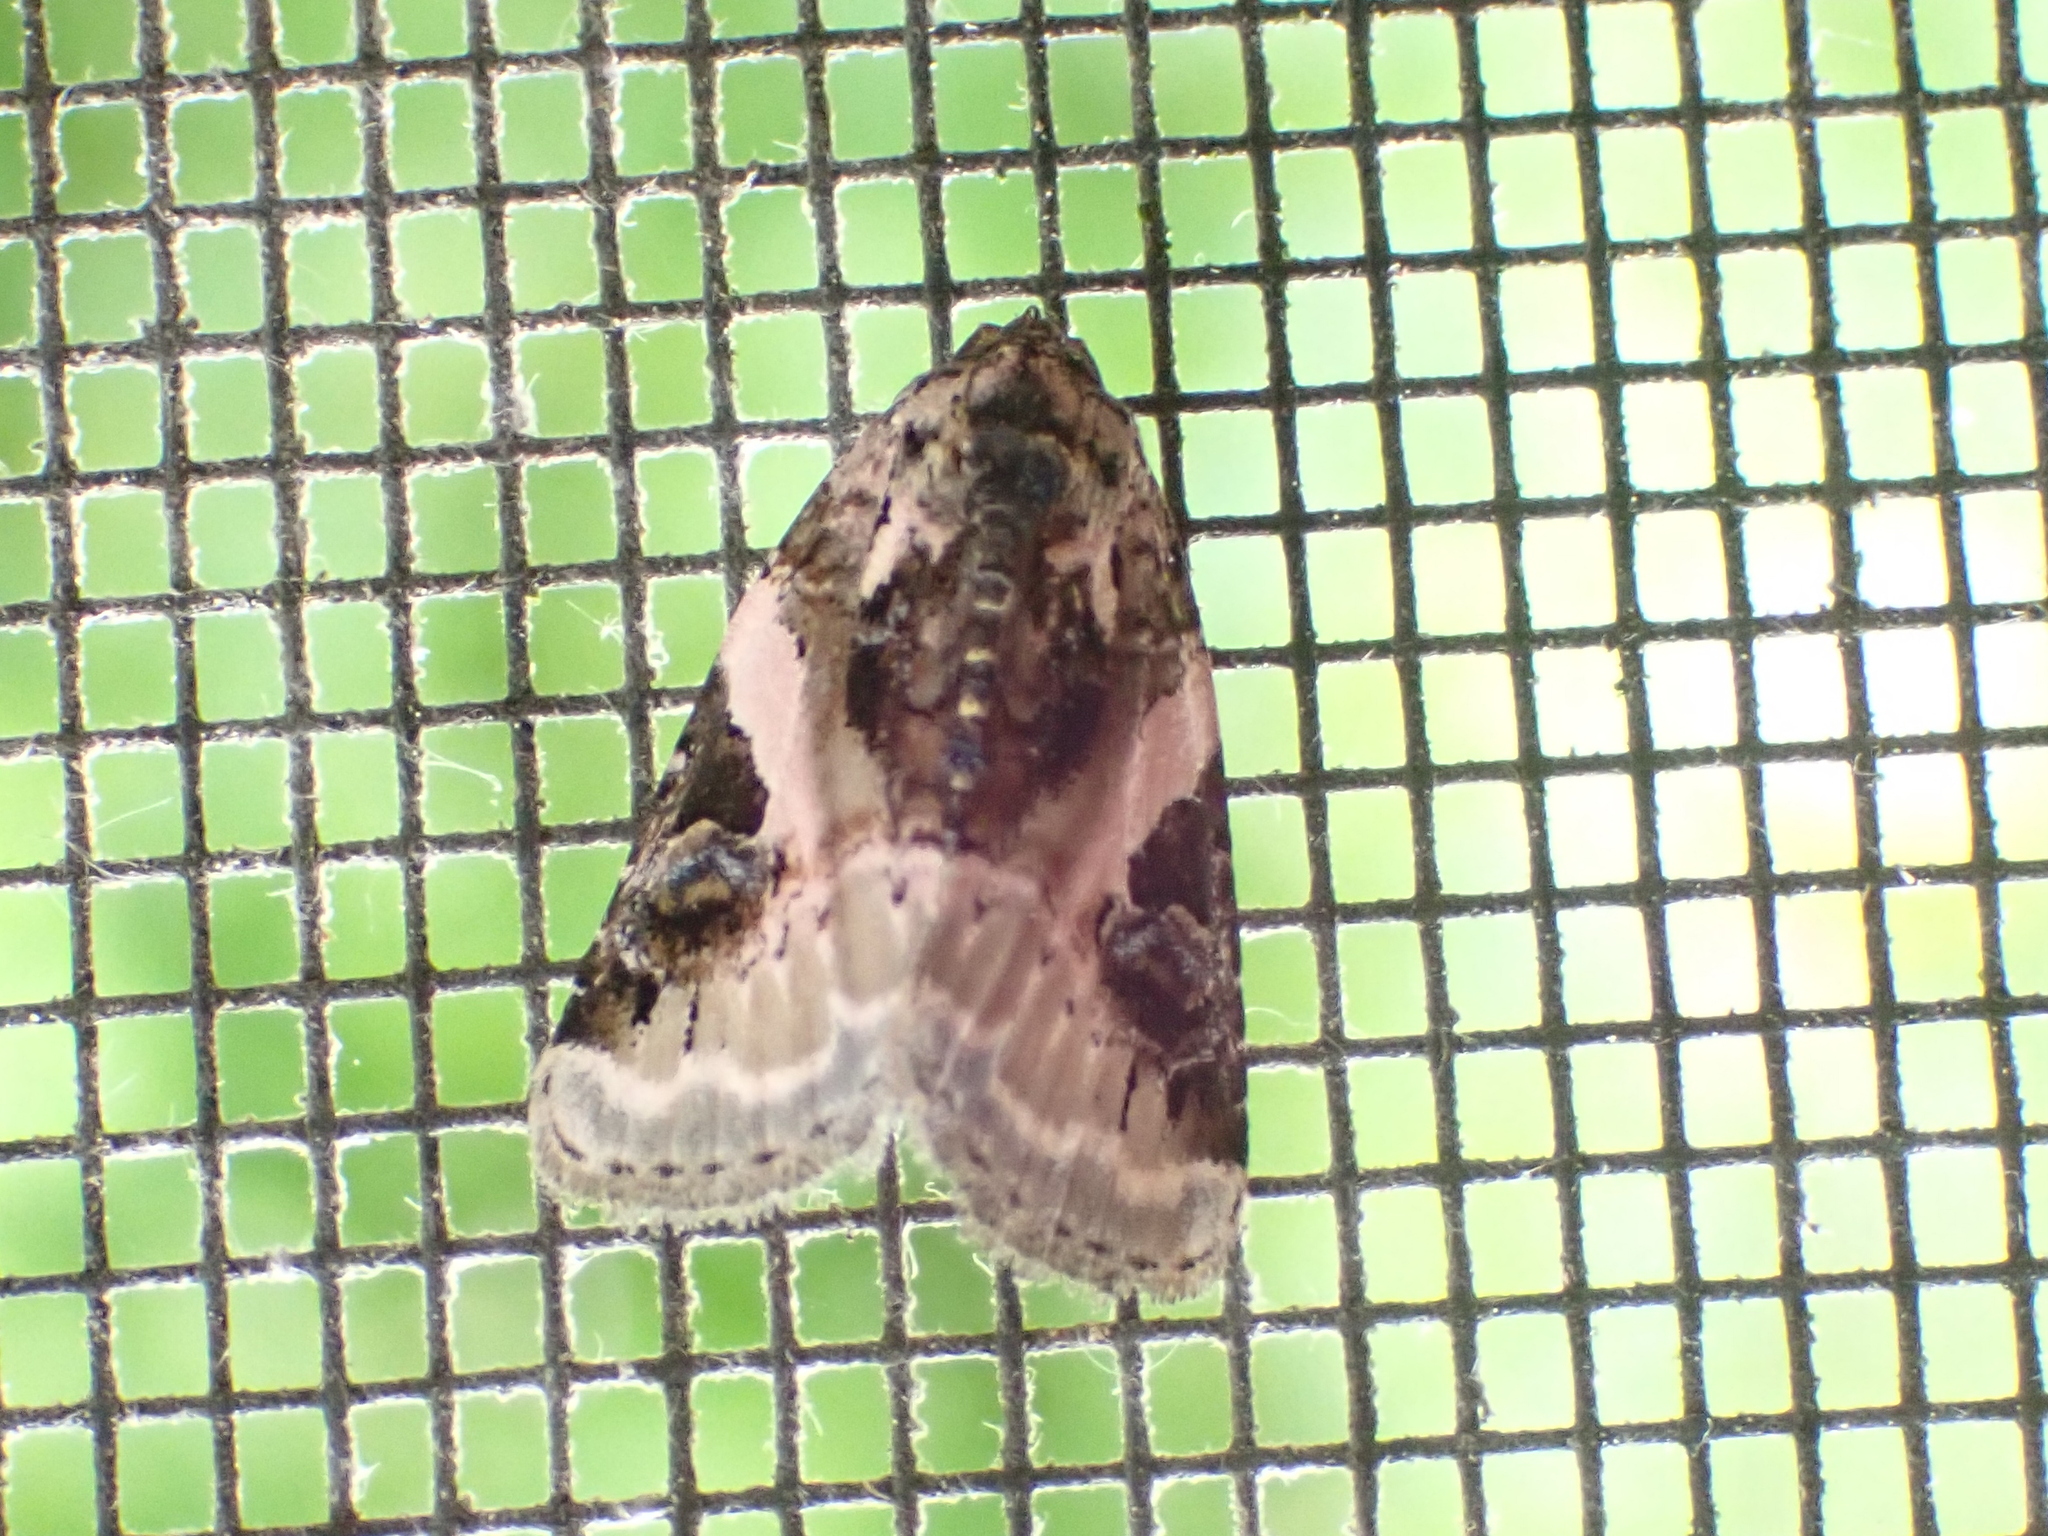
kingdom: Animalia
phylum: Arthropoda
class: Insecta
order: Lepidoptera
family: Noctuidae
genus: Pseudeustrotia
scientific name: Pseudeustrotia carneola
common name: Pink-barred lithacodia moth
